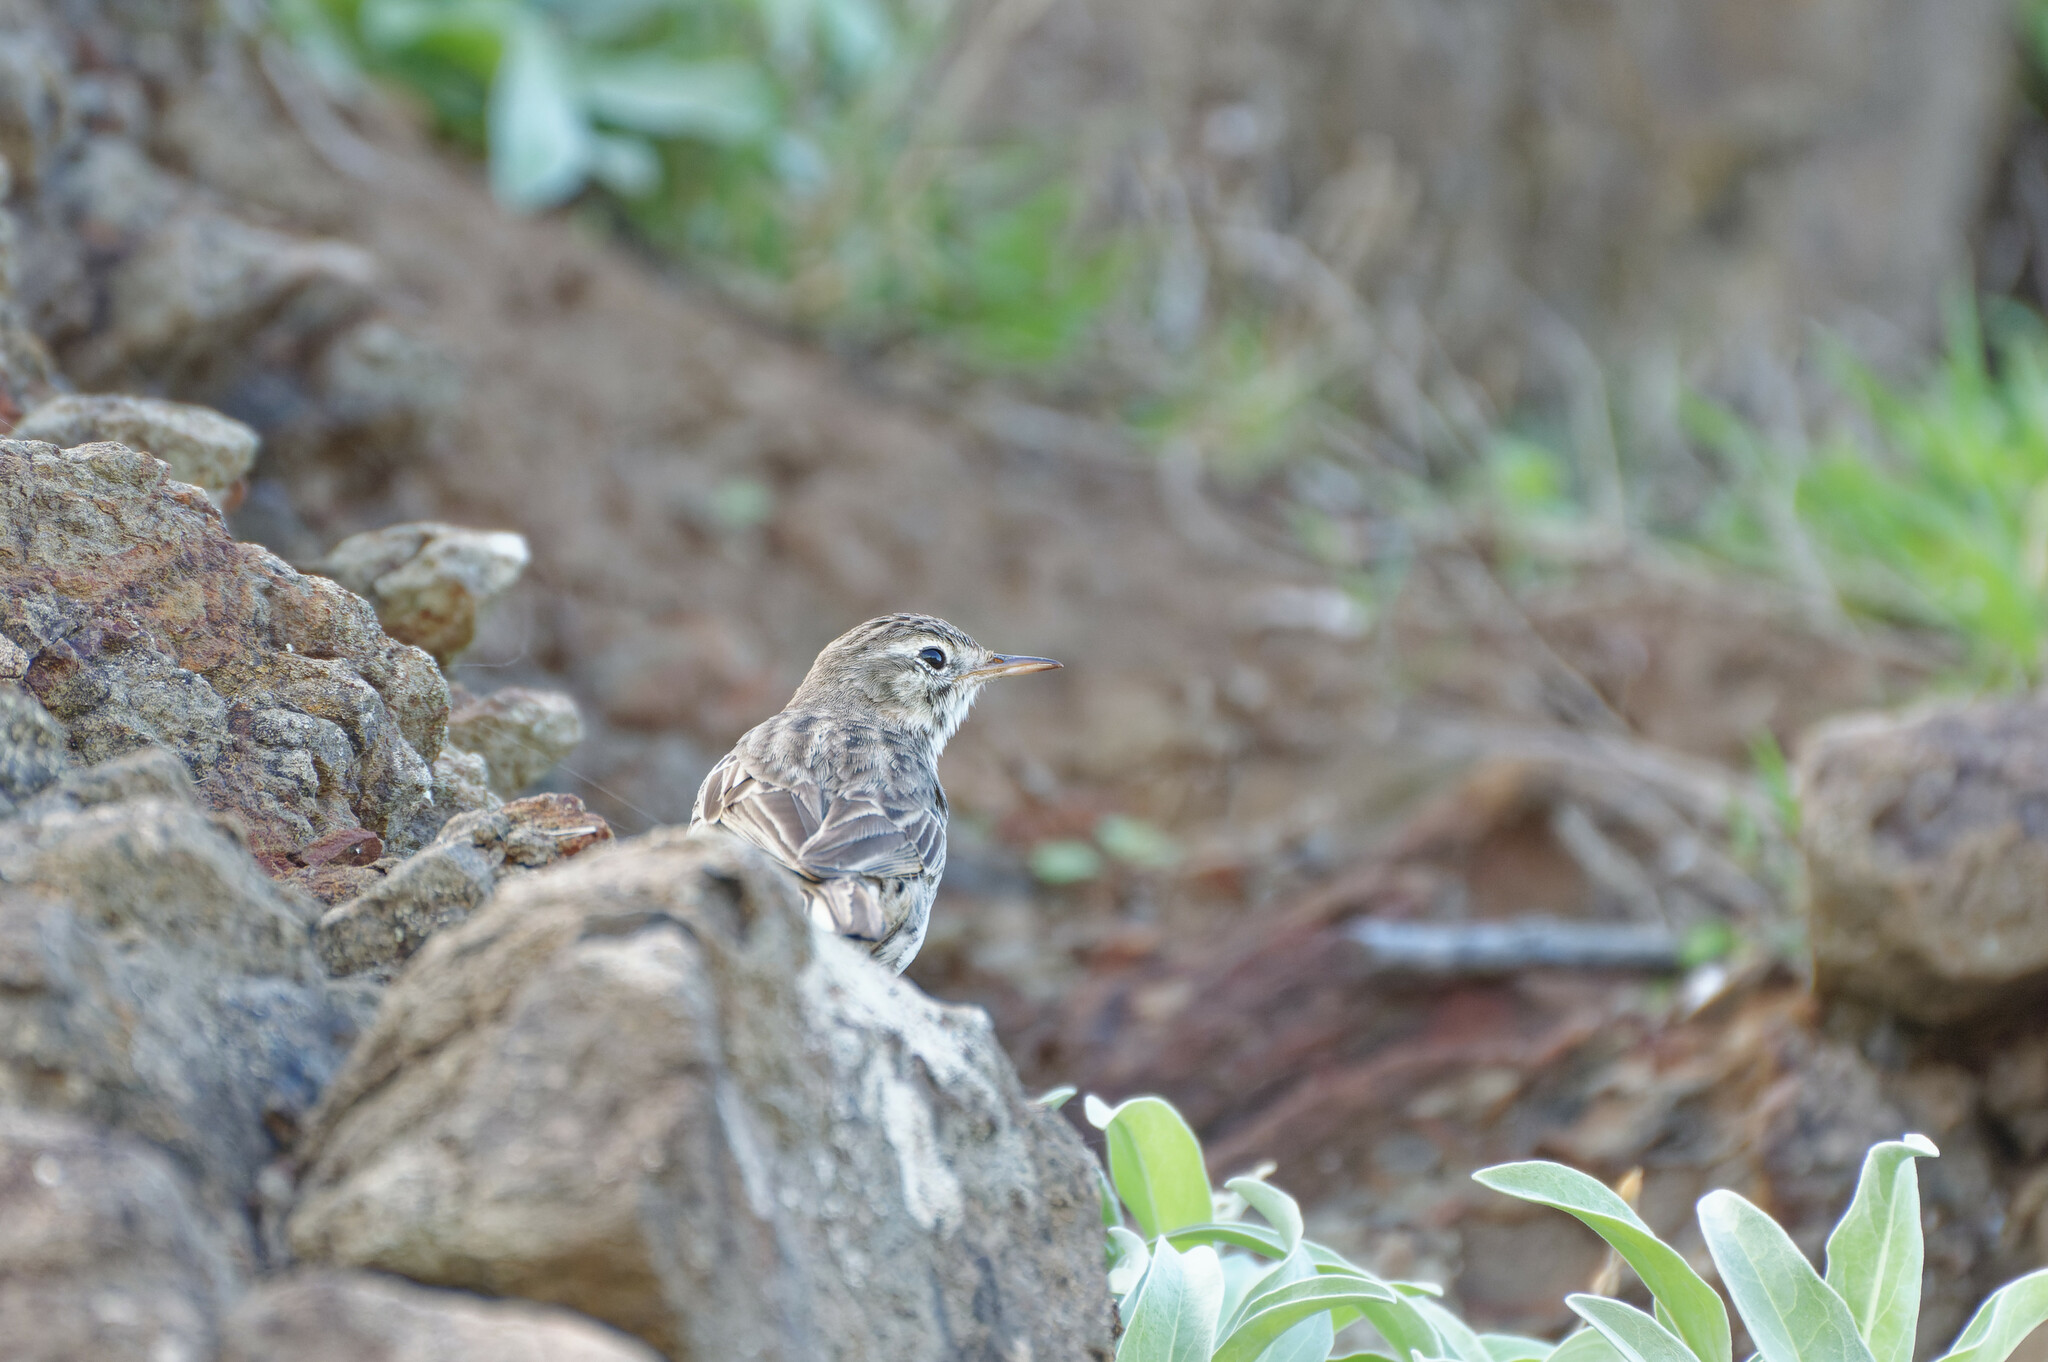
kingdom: Animalia
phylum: Chordata
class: Aves
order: Passeriformes
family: Motacillidae
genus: Anthus
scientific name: Anthus berthelotii
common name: Berthelot's pipit
